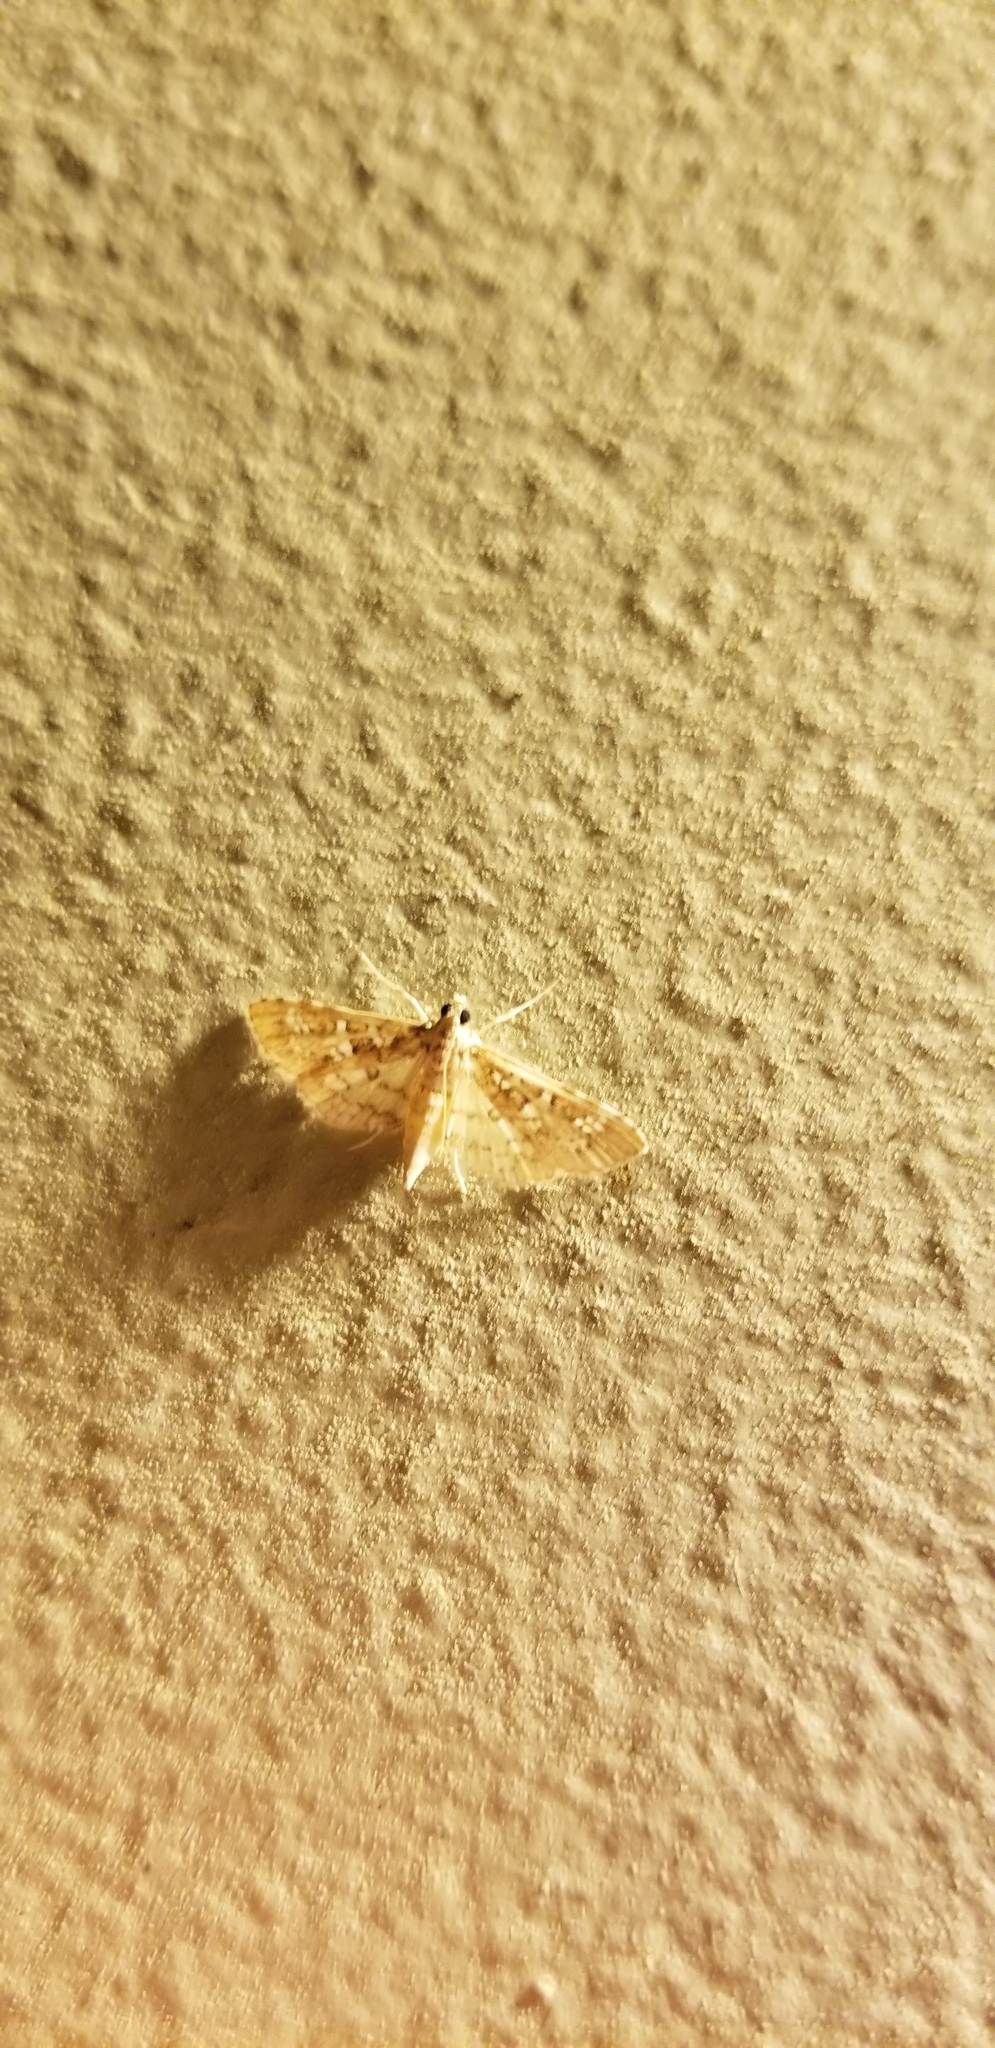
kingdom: Animalia
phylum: Arthropoda
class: Insecta
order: Lepidoptera
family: Crambidae
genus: Samea
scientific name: Samea multiplicalis
